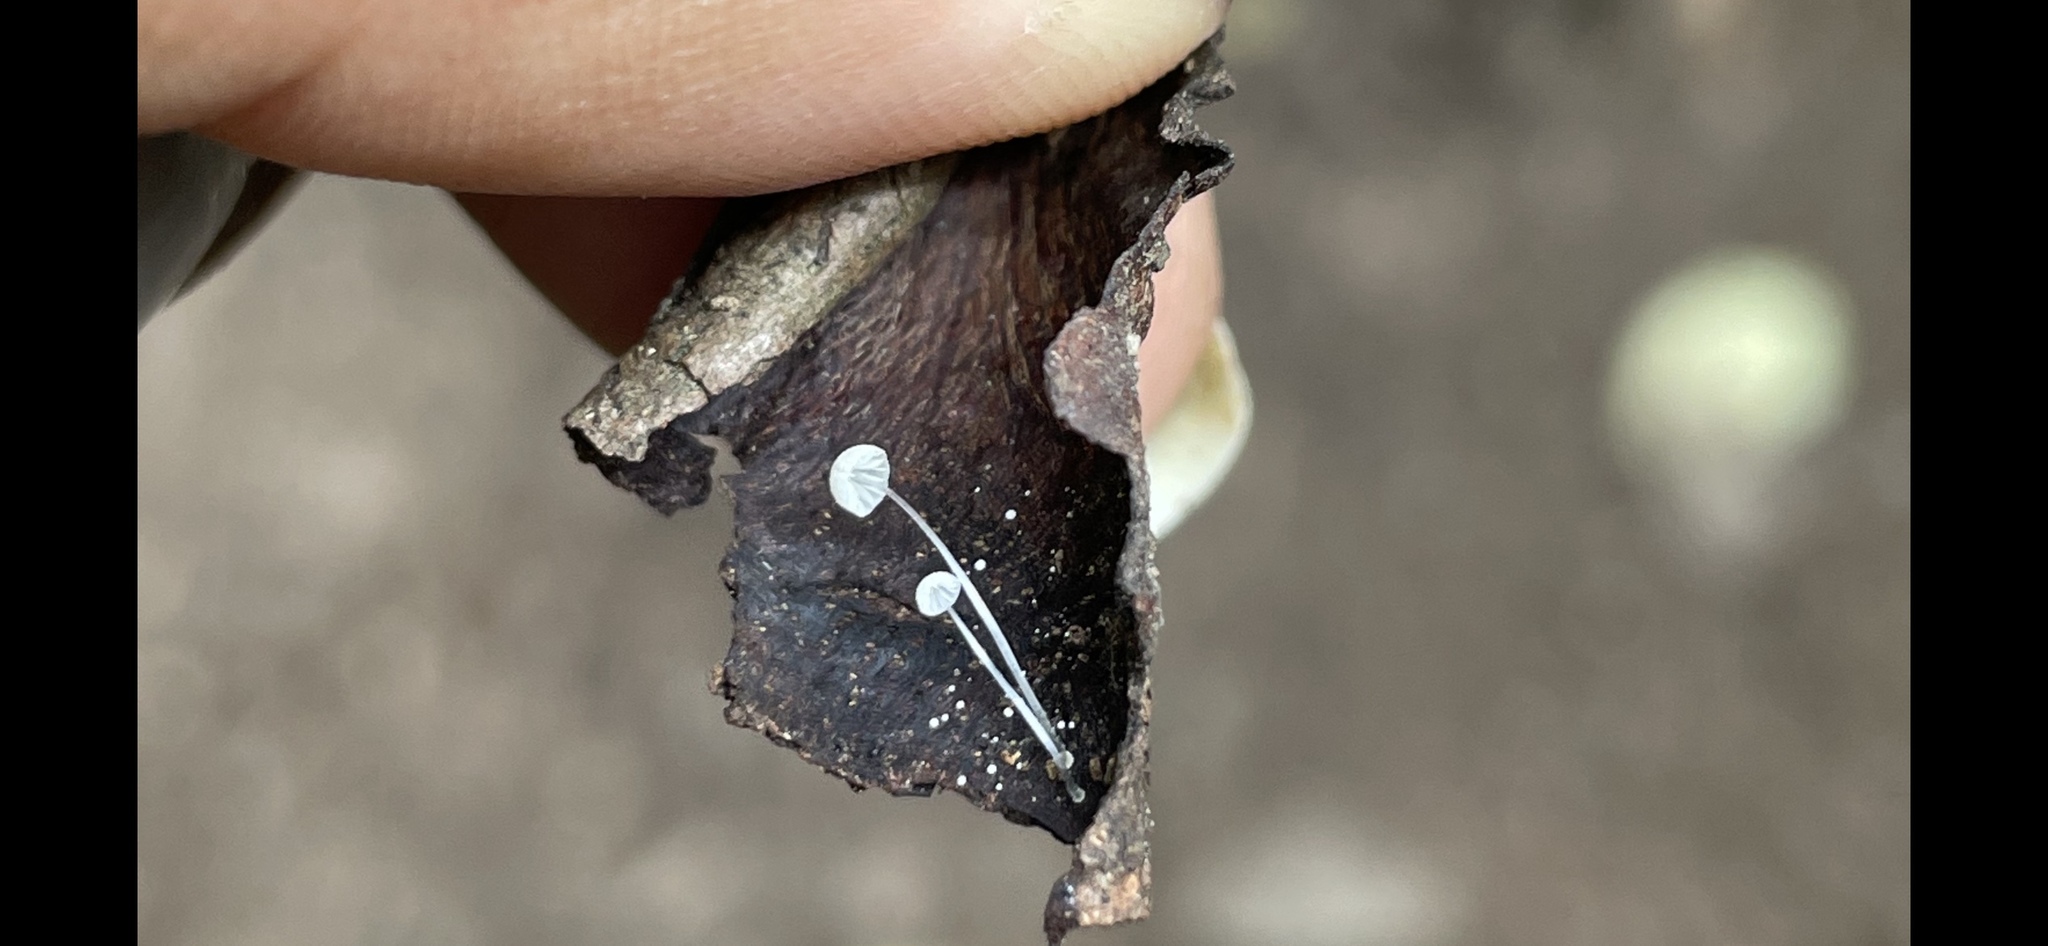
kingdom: Fungi
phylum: Basidiomycota
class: Agaricomycetes
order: Agaricales
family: Mycenaceae
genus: Mycena
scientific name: Mycena tenerrima
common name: Frosty bonnet
